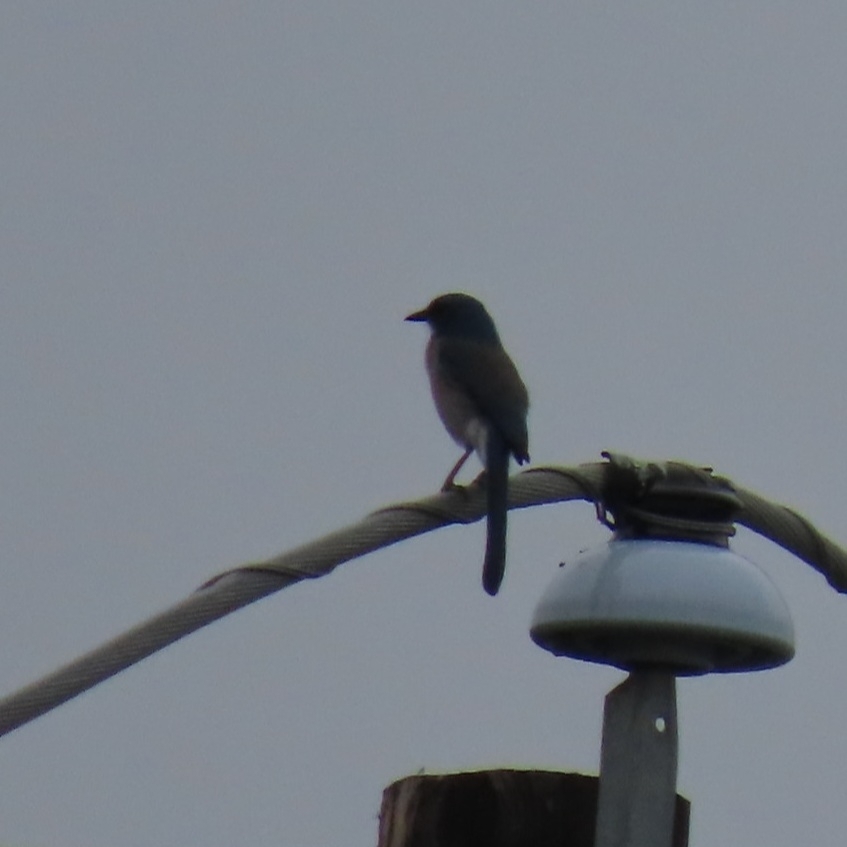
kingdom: Animalia
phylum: Chordata
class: Aves
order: Passeriformes
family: Corvidae
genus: Aphelocoma
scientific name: Aphelocoma woodhouseii
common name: Woodhouse's scrub-jay
